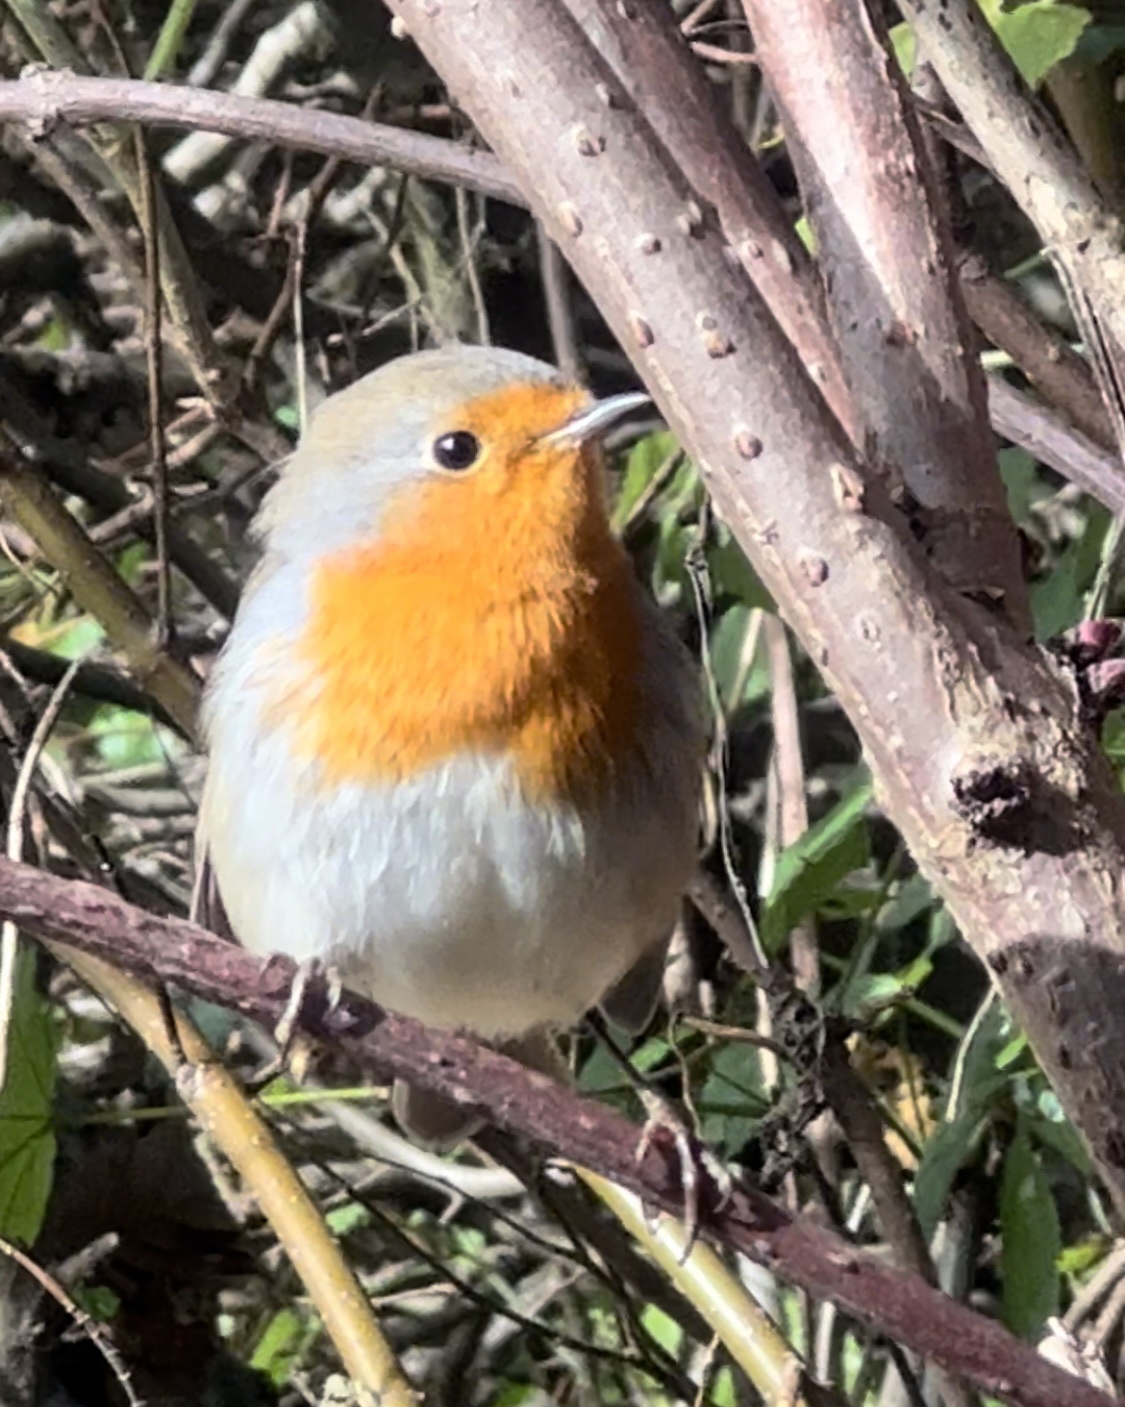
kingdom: Animalia
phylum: Chordata
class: Aves
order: Passeriformes
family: Muscicapidae
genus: Erithacus
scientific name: Erithacus rubecula
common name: European robin
